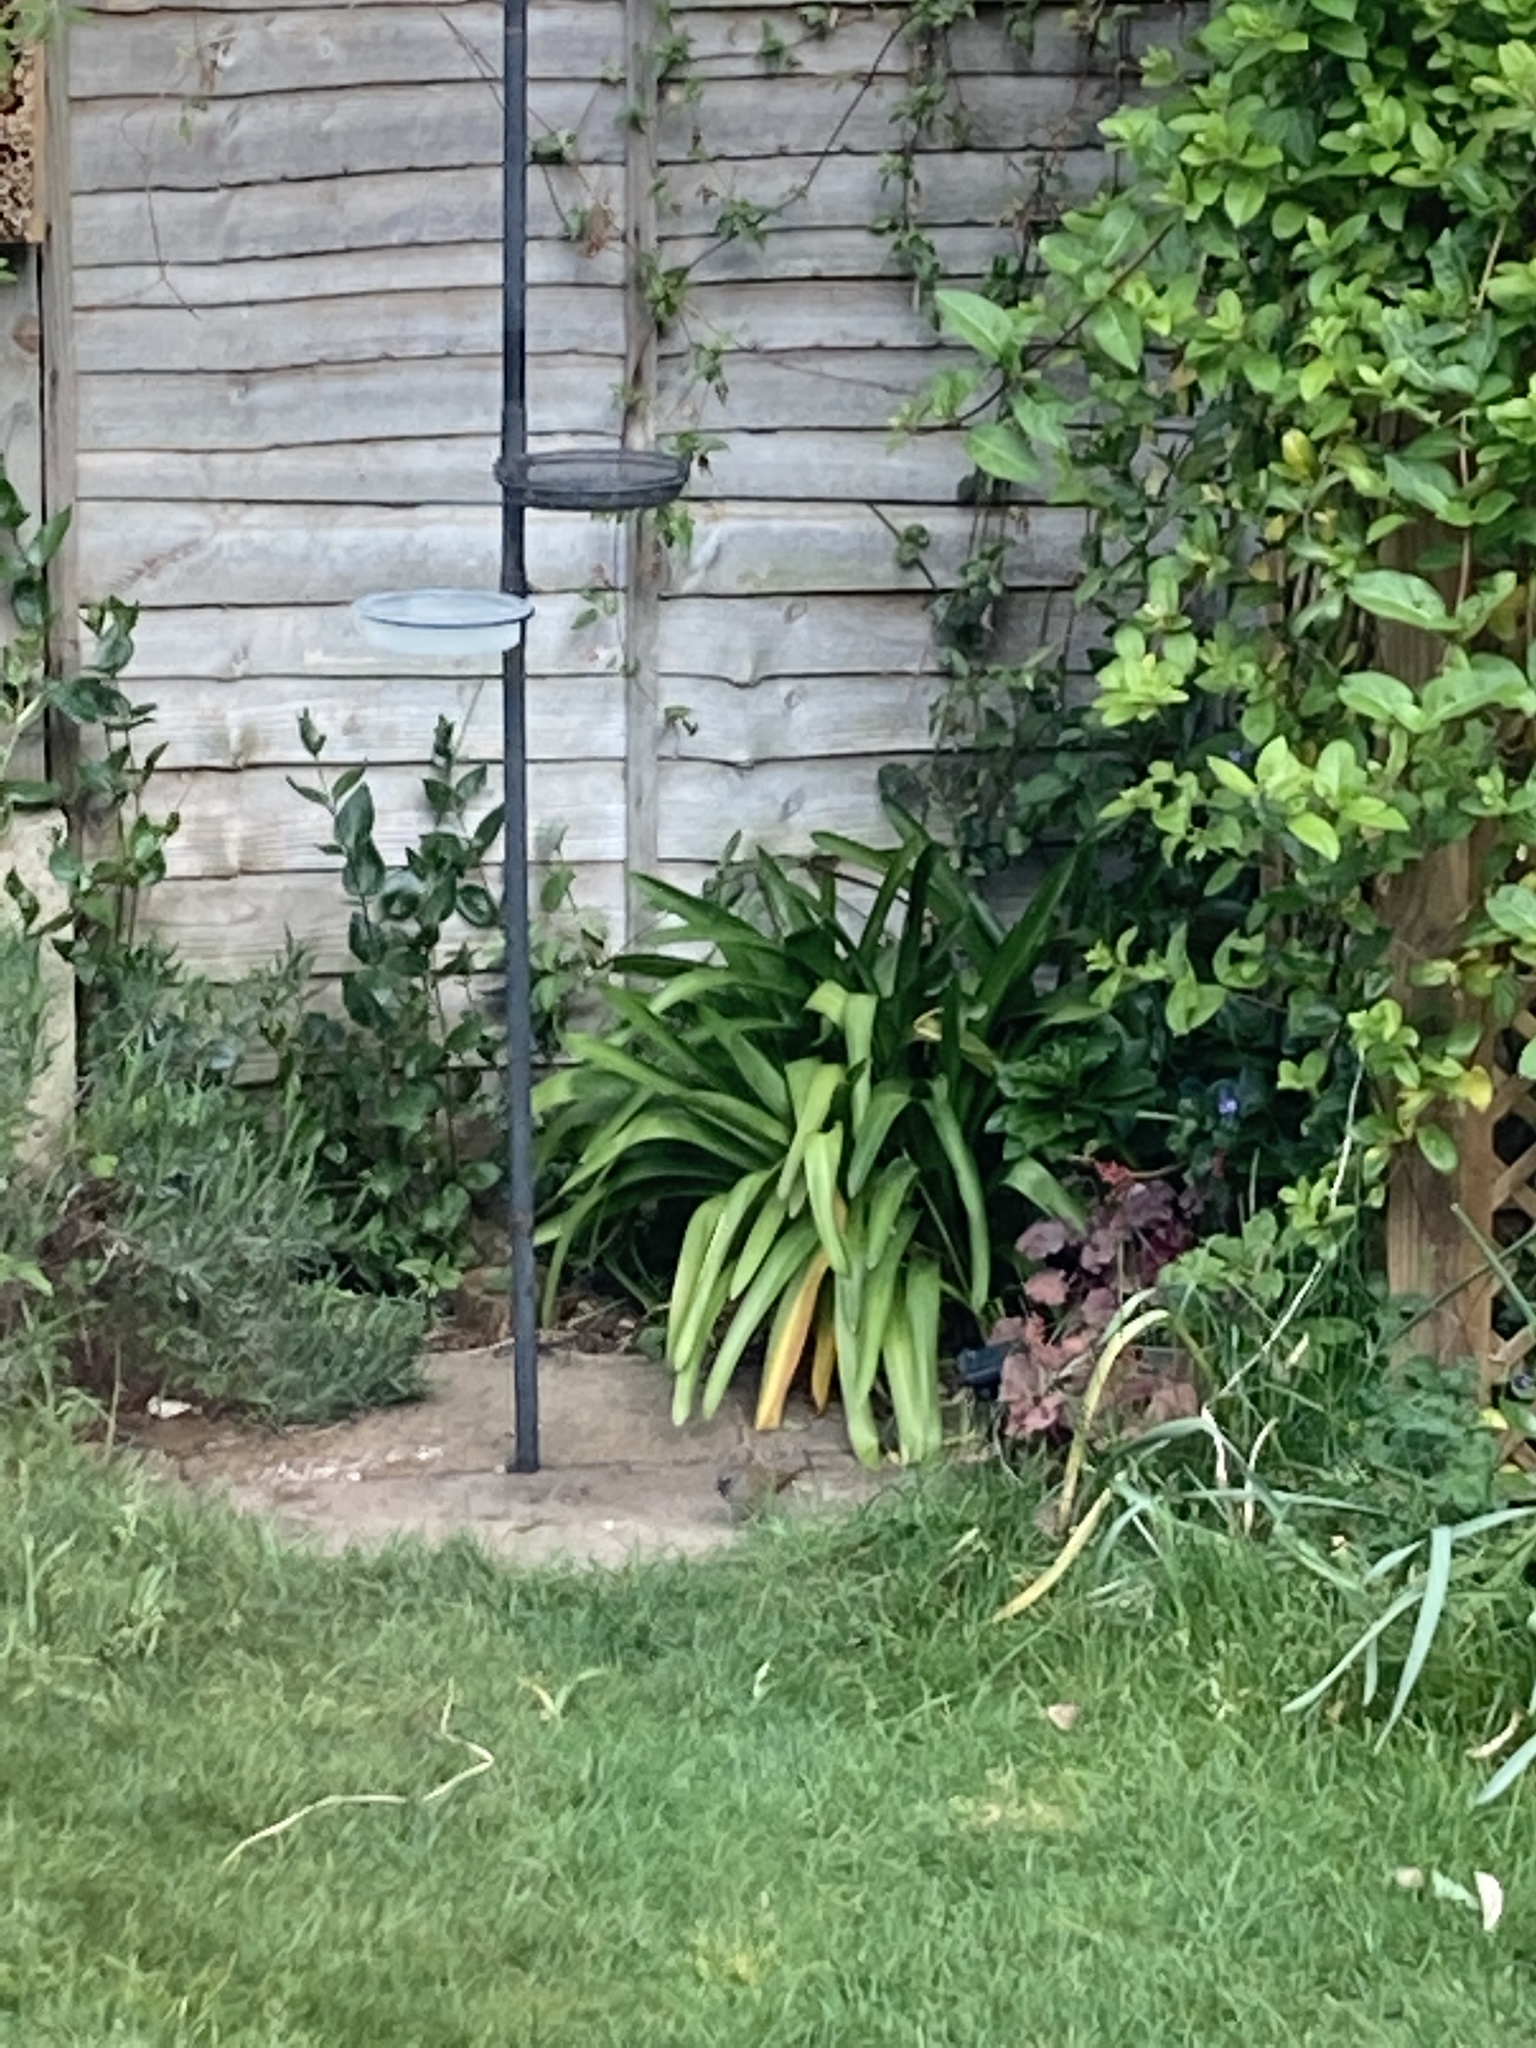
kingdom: Animalia
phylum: Chordata
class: Aves
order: Passeriformes
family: Prunellidae
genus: Prunella
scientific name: Prunella modularis
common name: Dunnock
